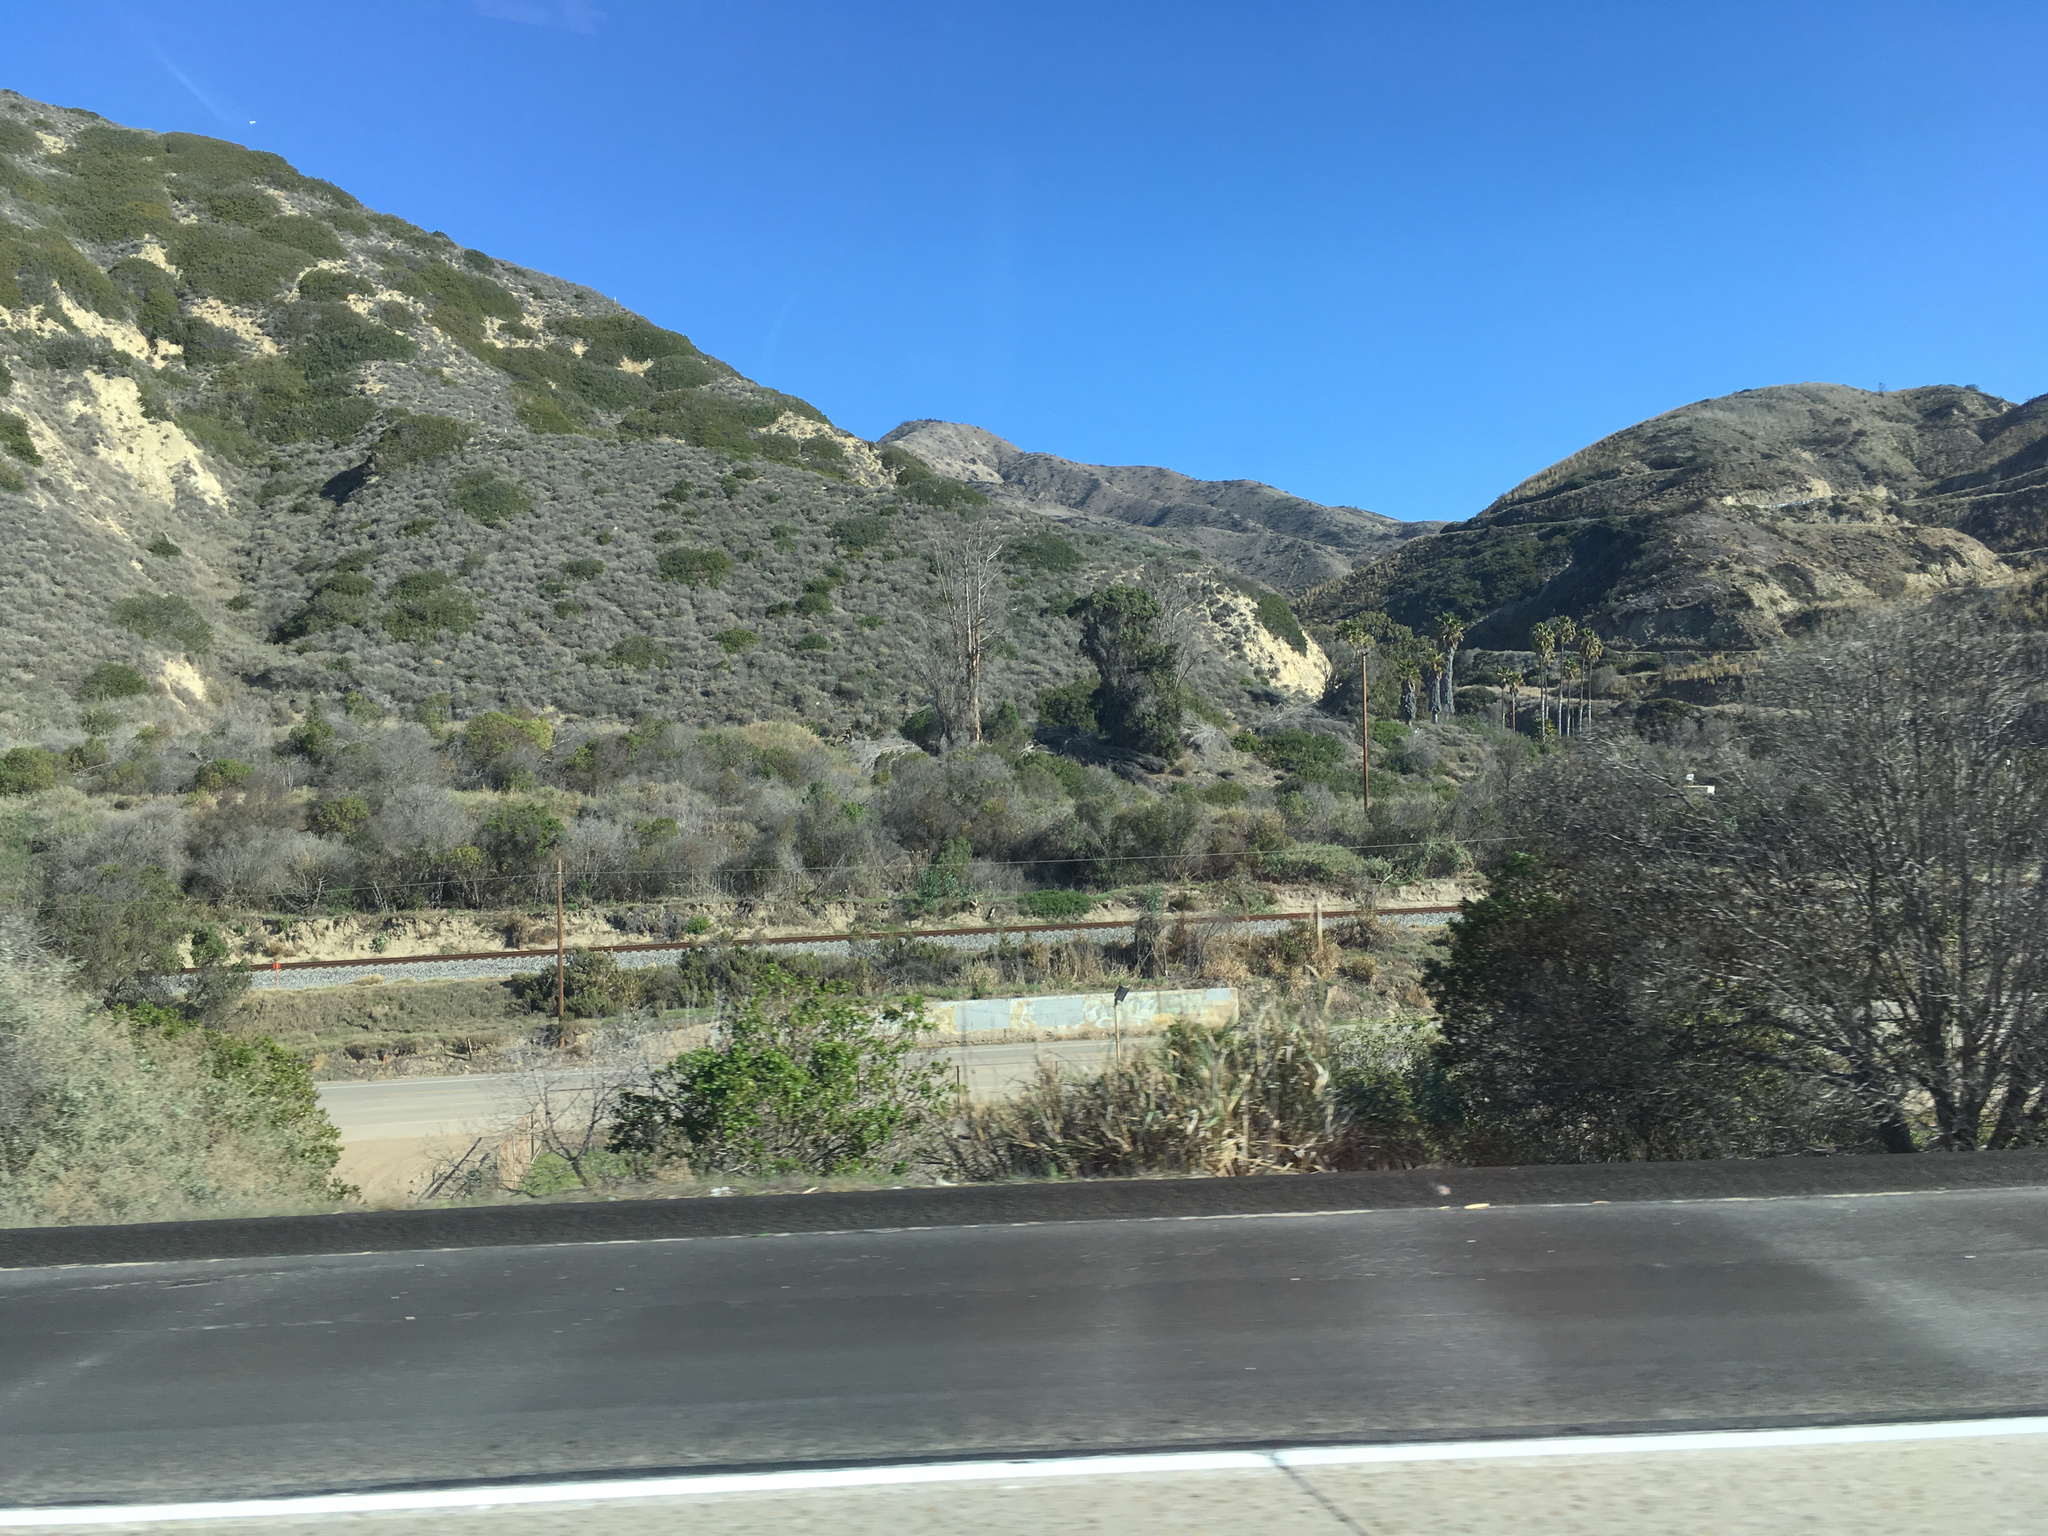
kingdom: Plantae
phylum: Tracheophyta
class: Magnoliopsida
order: Lamiales
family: Scrophulariaceae
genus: Myoporum
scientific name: Myoporum laetum
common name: Ngaio tree
